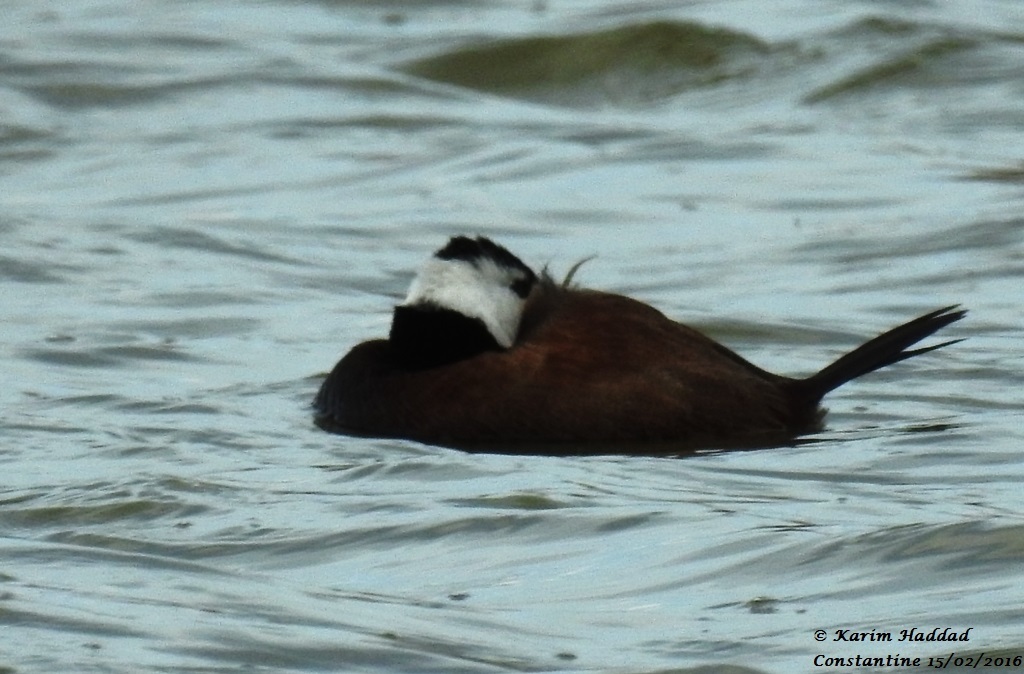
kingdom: Animalia
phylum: Chordata
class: Aves
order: Anseriformes
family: Anatidae
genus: Oxyura
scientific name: Oxyura leucocephala
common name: White-headed duck
